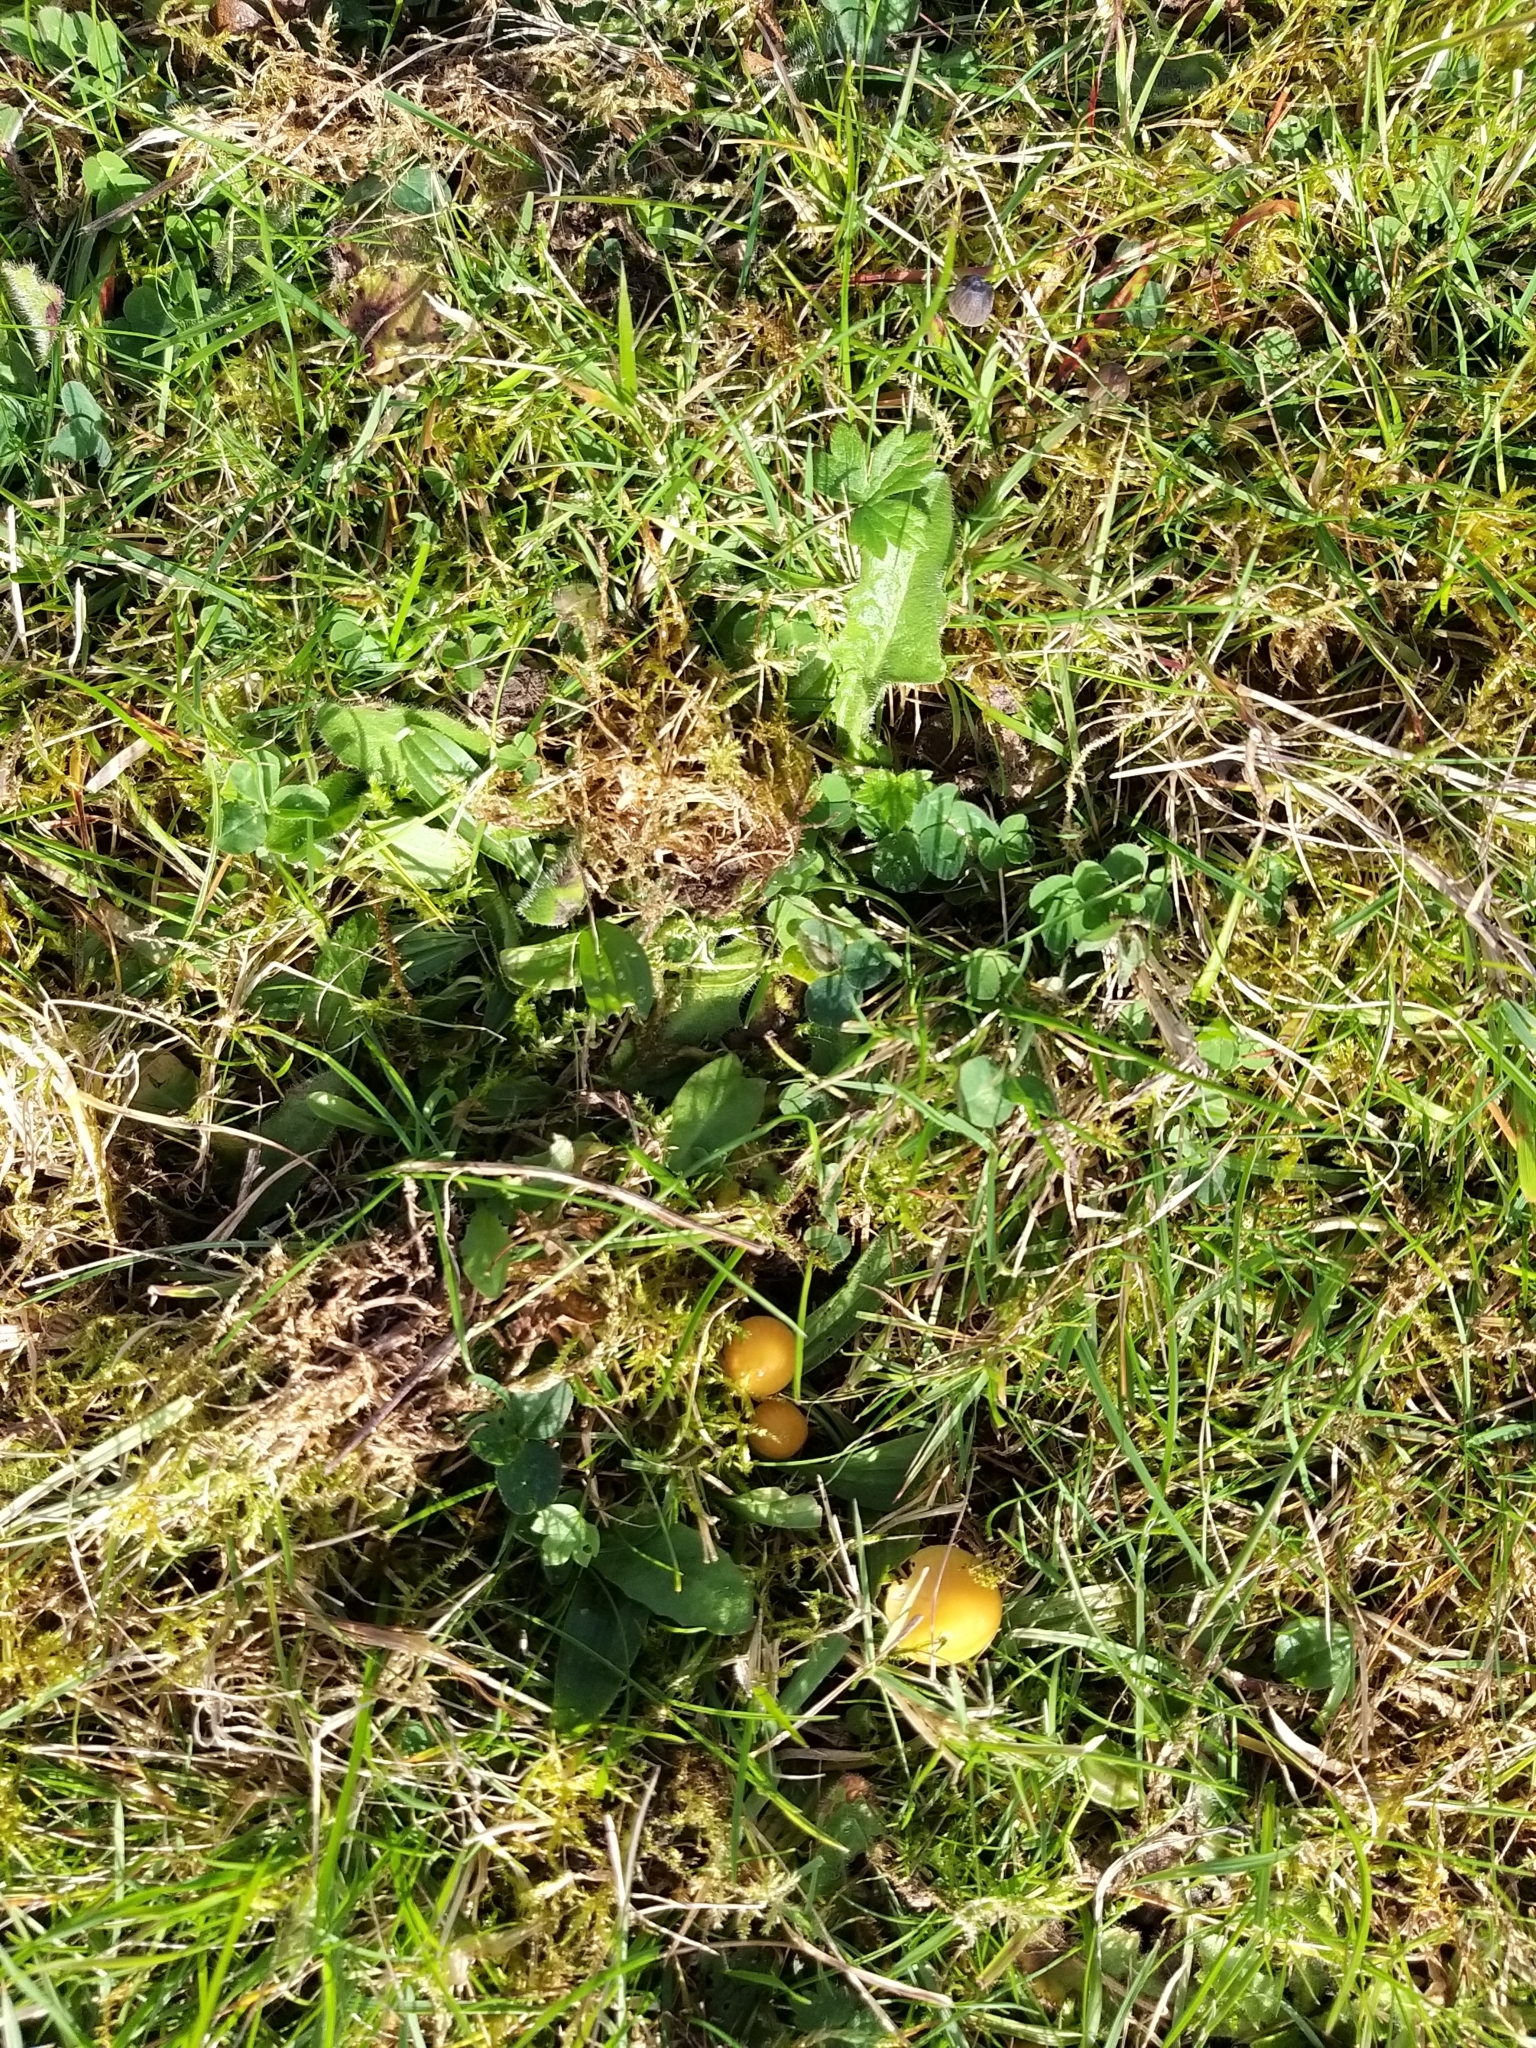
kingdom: Fungi
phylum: Basidiomycota
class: Agaricomycetes
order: Agaricales
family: Hygrophoraceae
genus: Gliophorus
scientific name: Gliophorus psittacinus
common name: Parrot wax-cap
